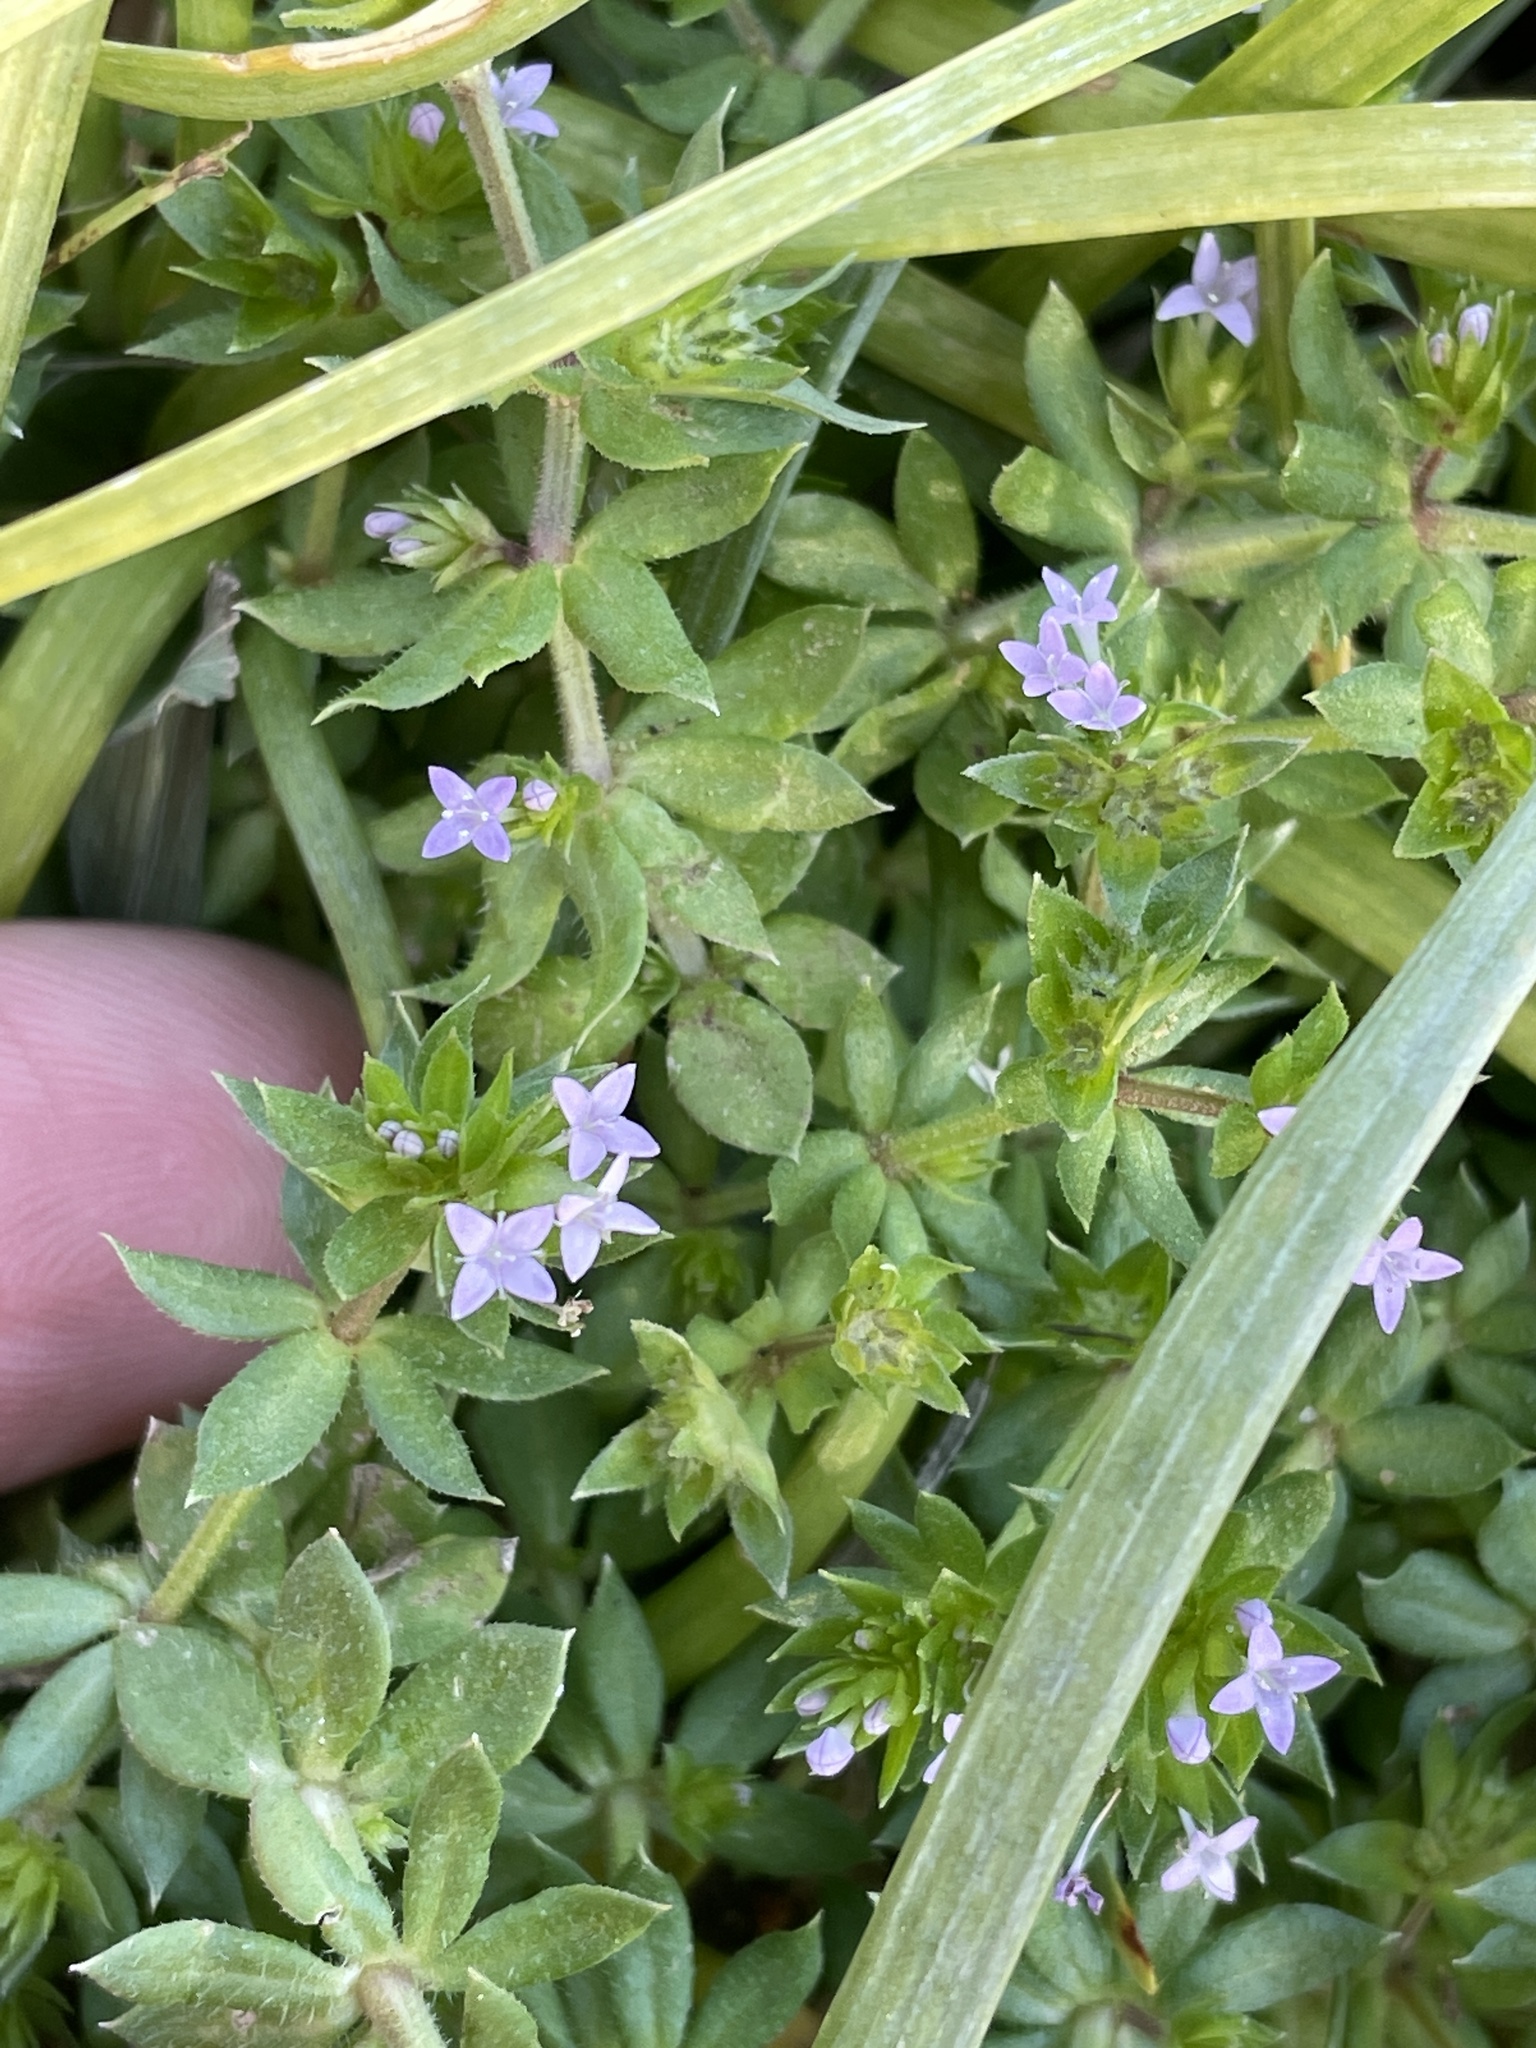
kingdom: Plantae
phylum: Tracheophyta
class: Magnoliopsida
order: Gentianales
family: Rubiaceae
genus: Sherardia
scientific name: Sherardia arvensis
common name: Field madder
